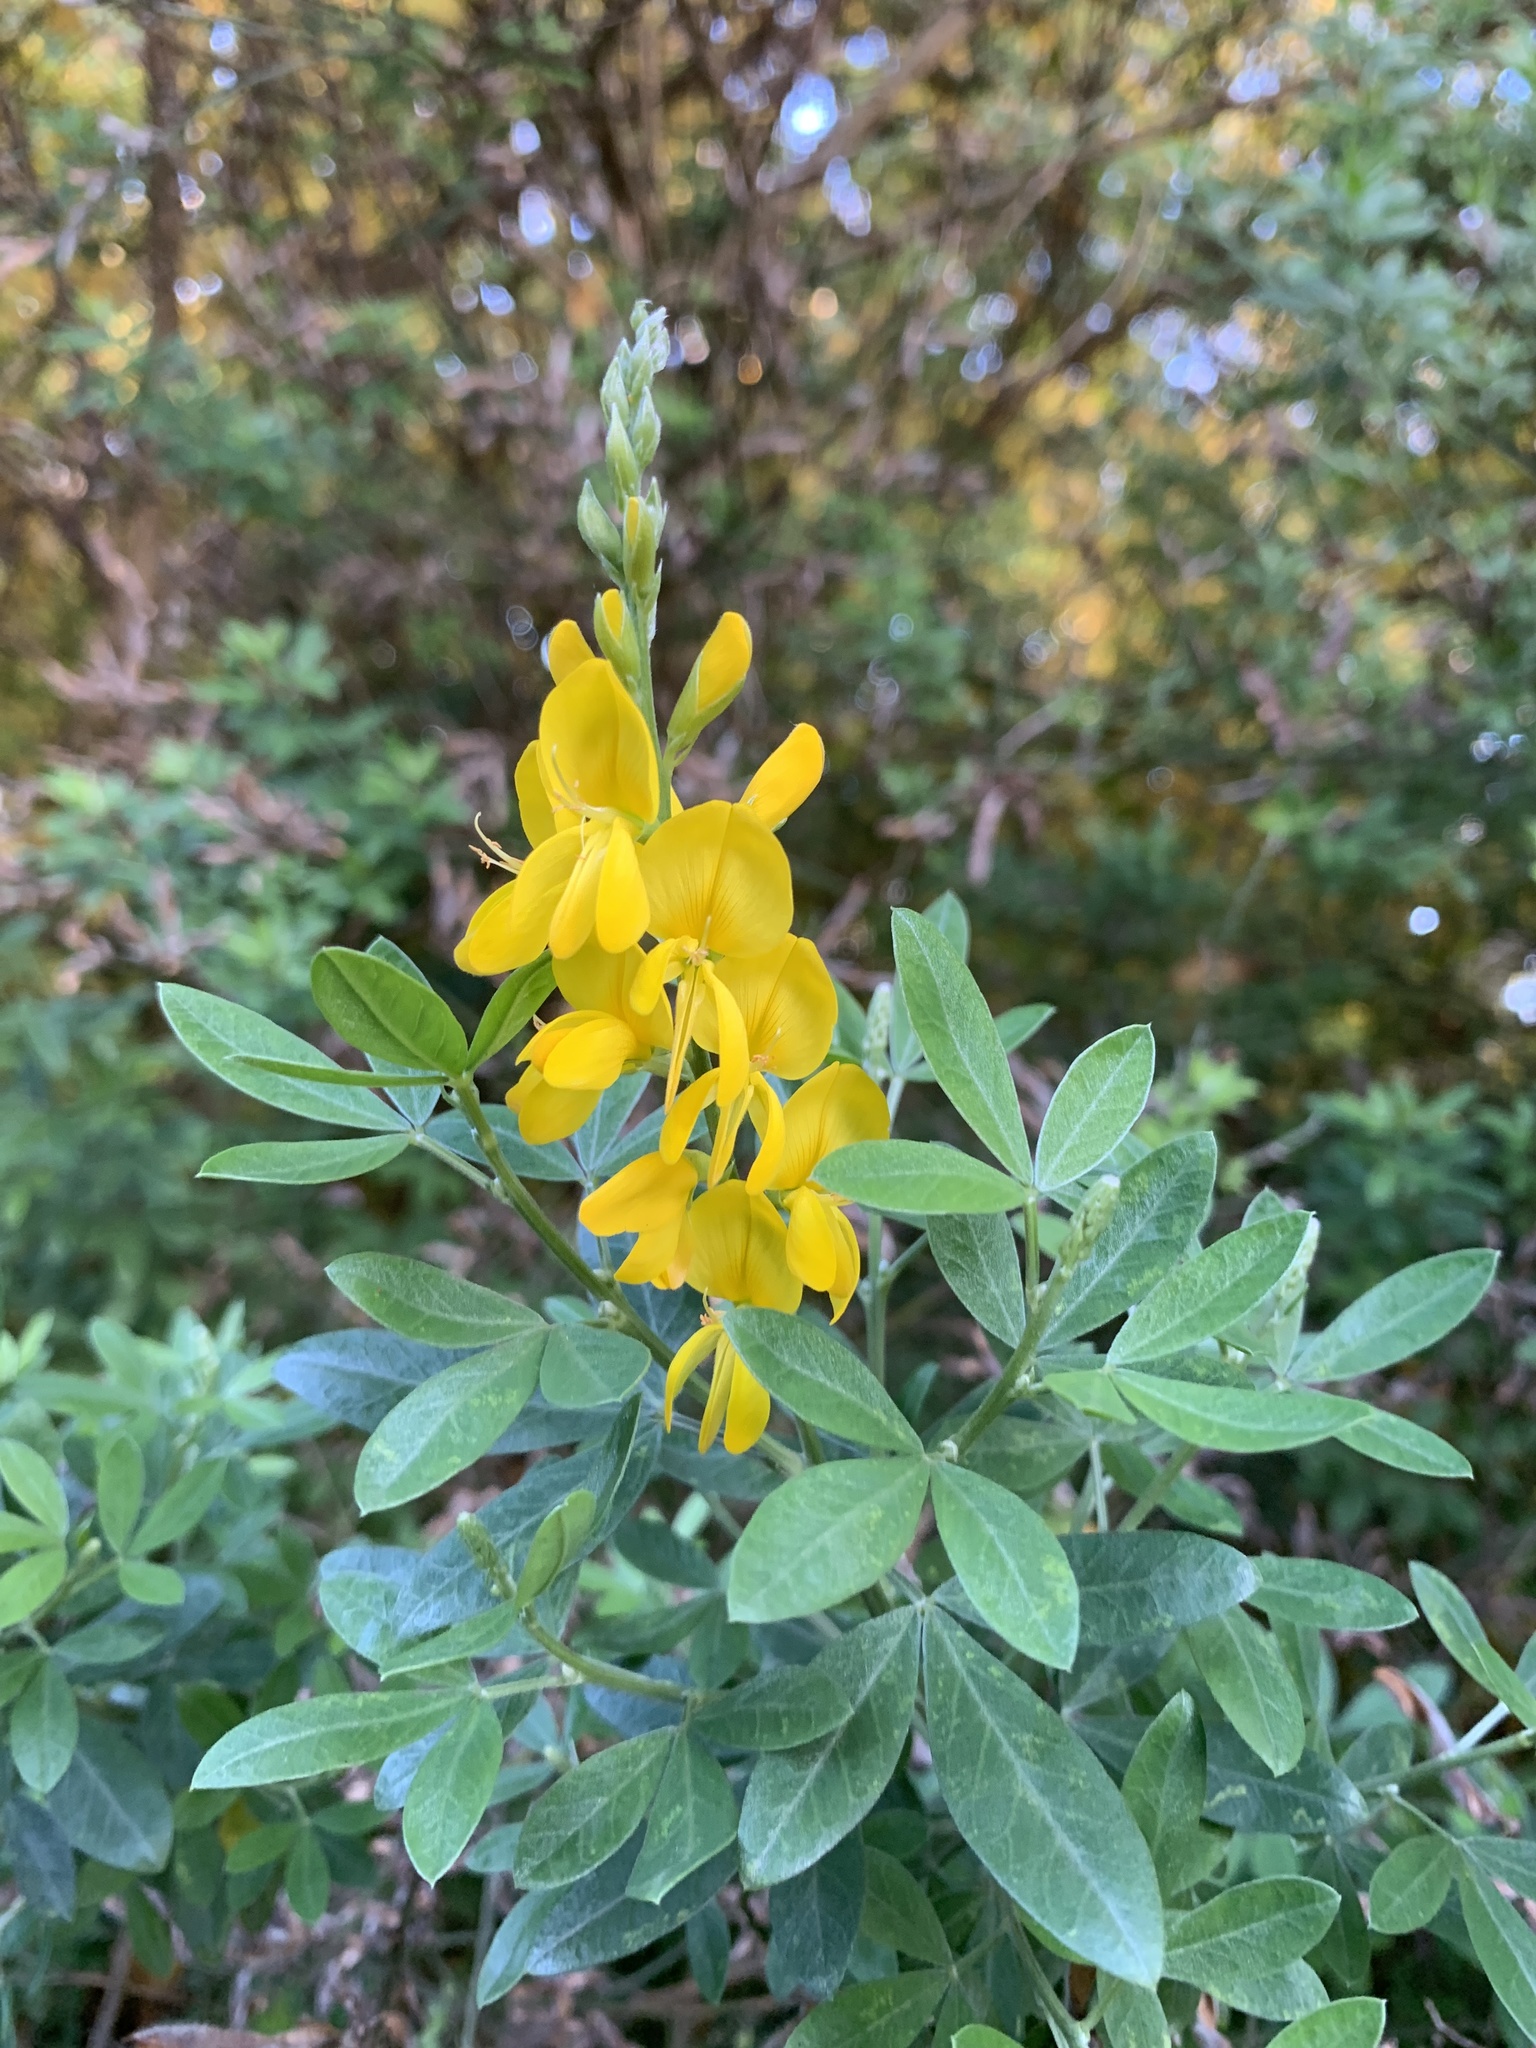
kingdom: Plantae
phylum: Tracheophyta
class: Magnoliopsida
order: Fabales
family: Fabaceae
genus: Genista
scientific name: Genista stenopetala
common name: Leafy broom
